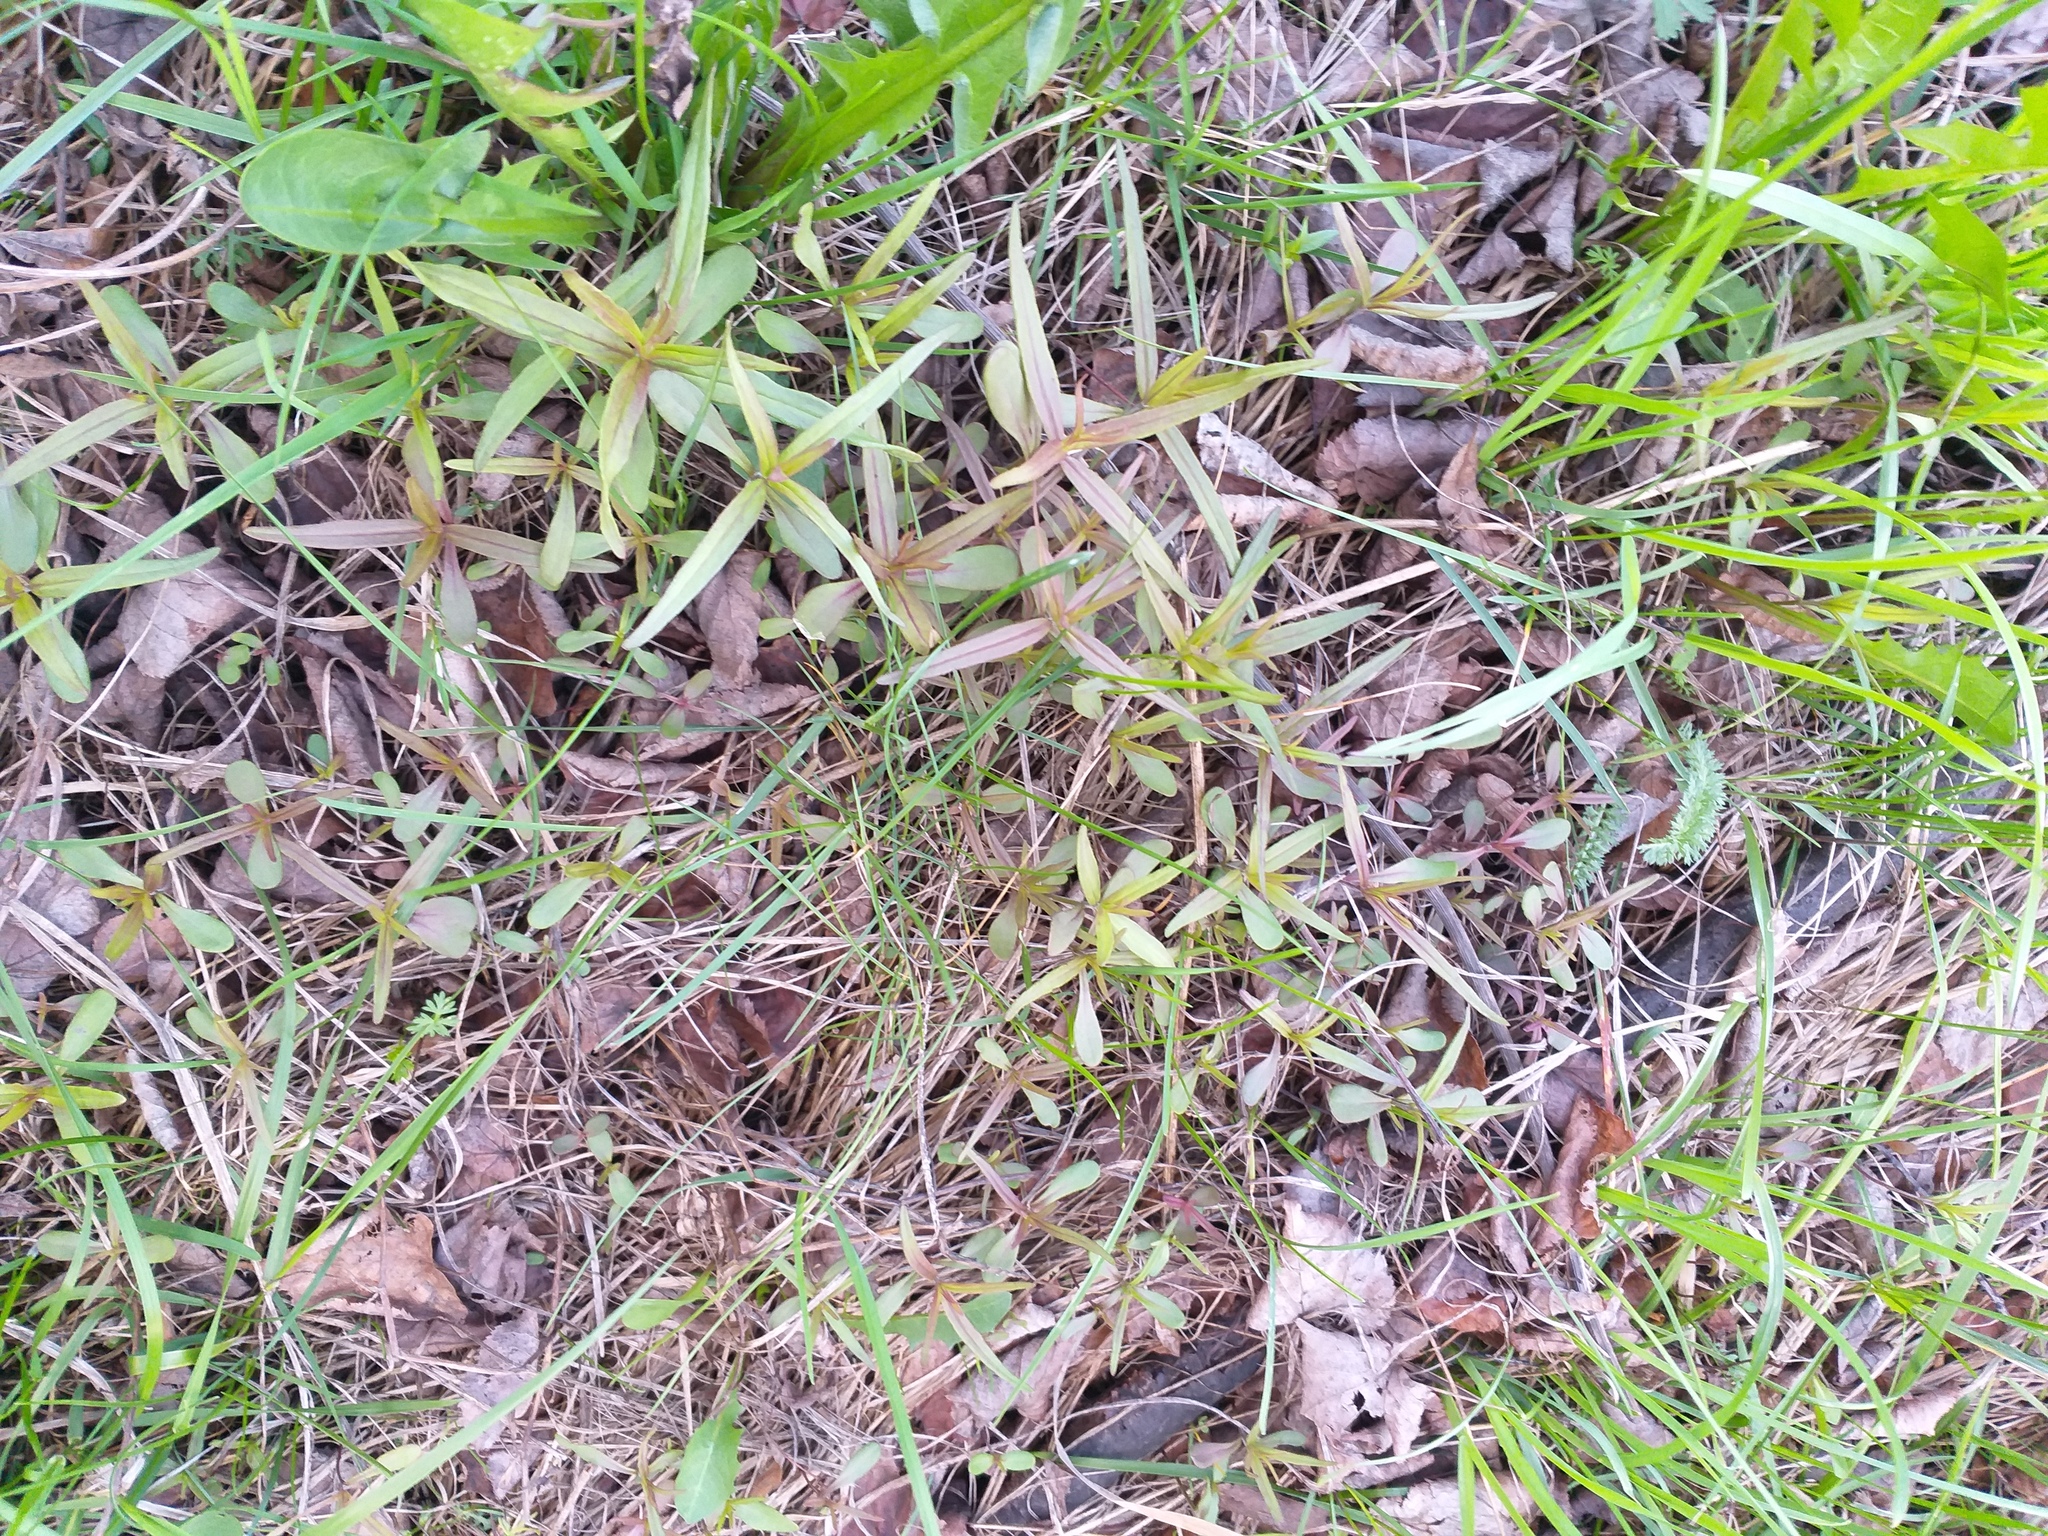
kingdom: Plantae
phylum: Tracheophyta
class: Magnoliopsida
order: Lamiales
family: Orobanchaceae
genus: Melampyrum
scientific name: Melampyrum nemorosum
